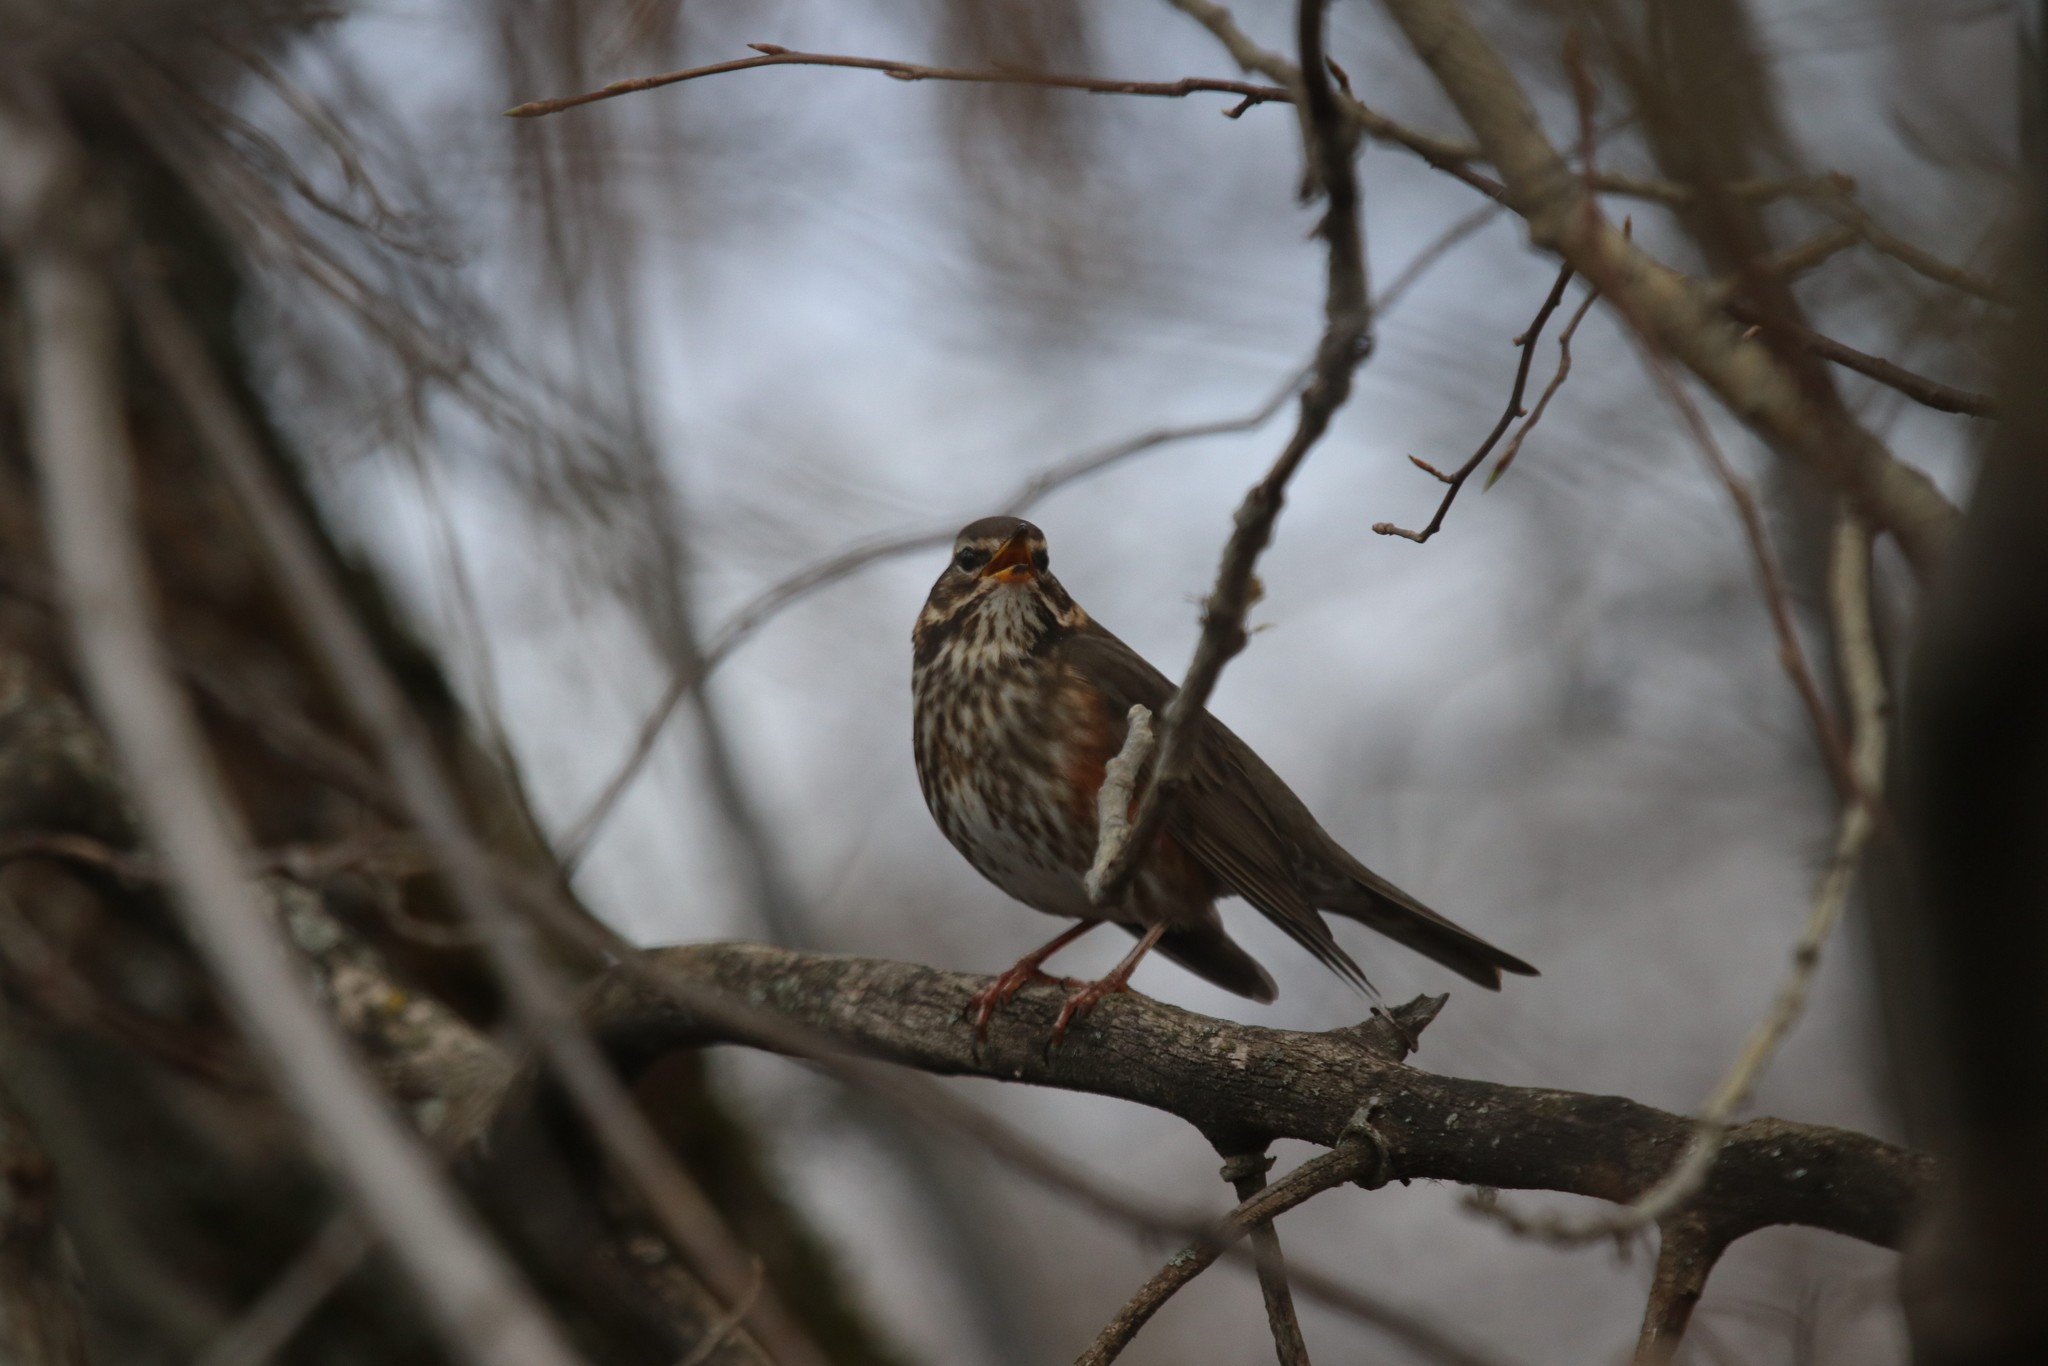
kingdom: Animalia
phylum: Chordata
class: Aves
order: Passeriformes
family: Turdidae
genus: Turdus
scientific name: Turdus iliacus
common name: Redwing
